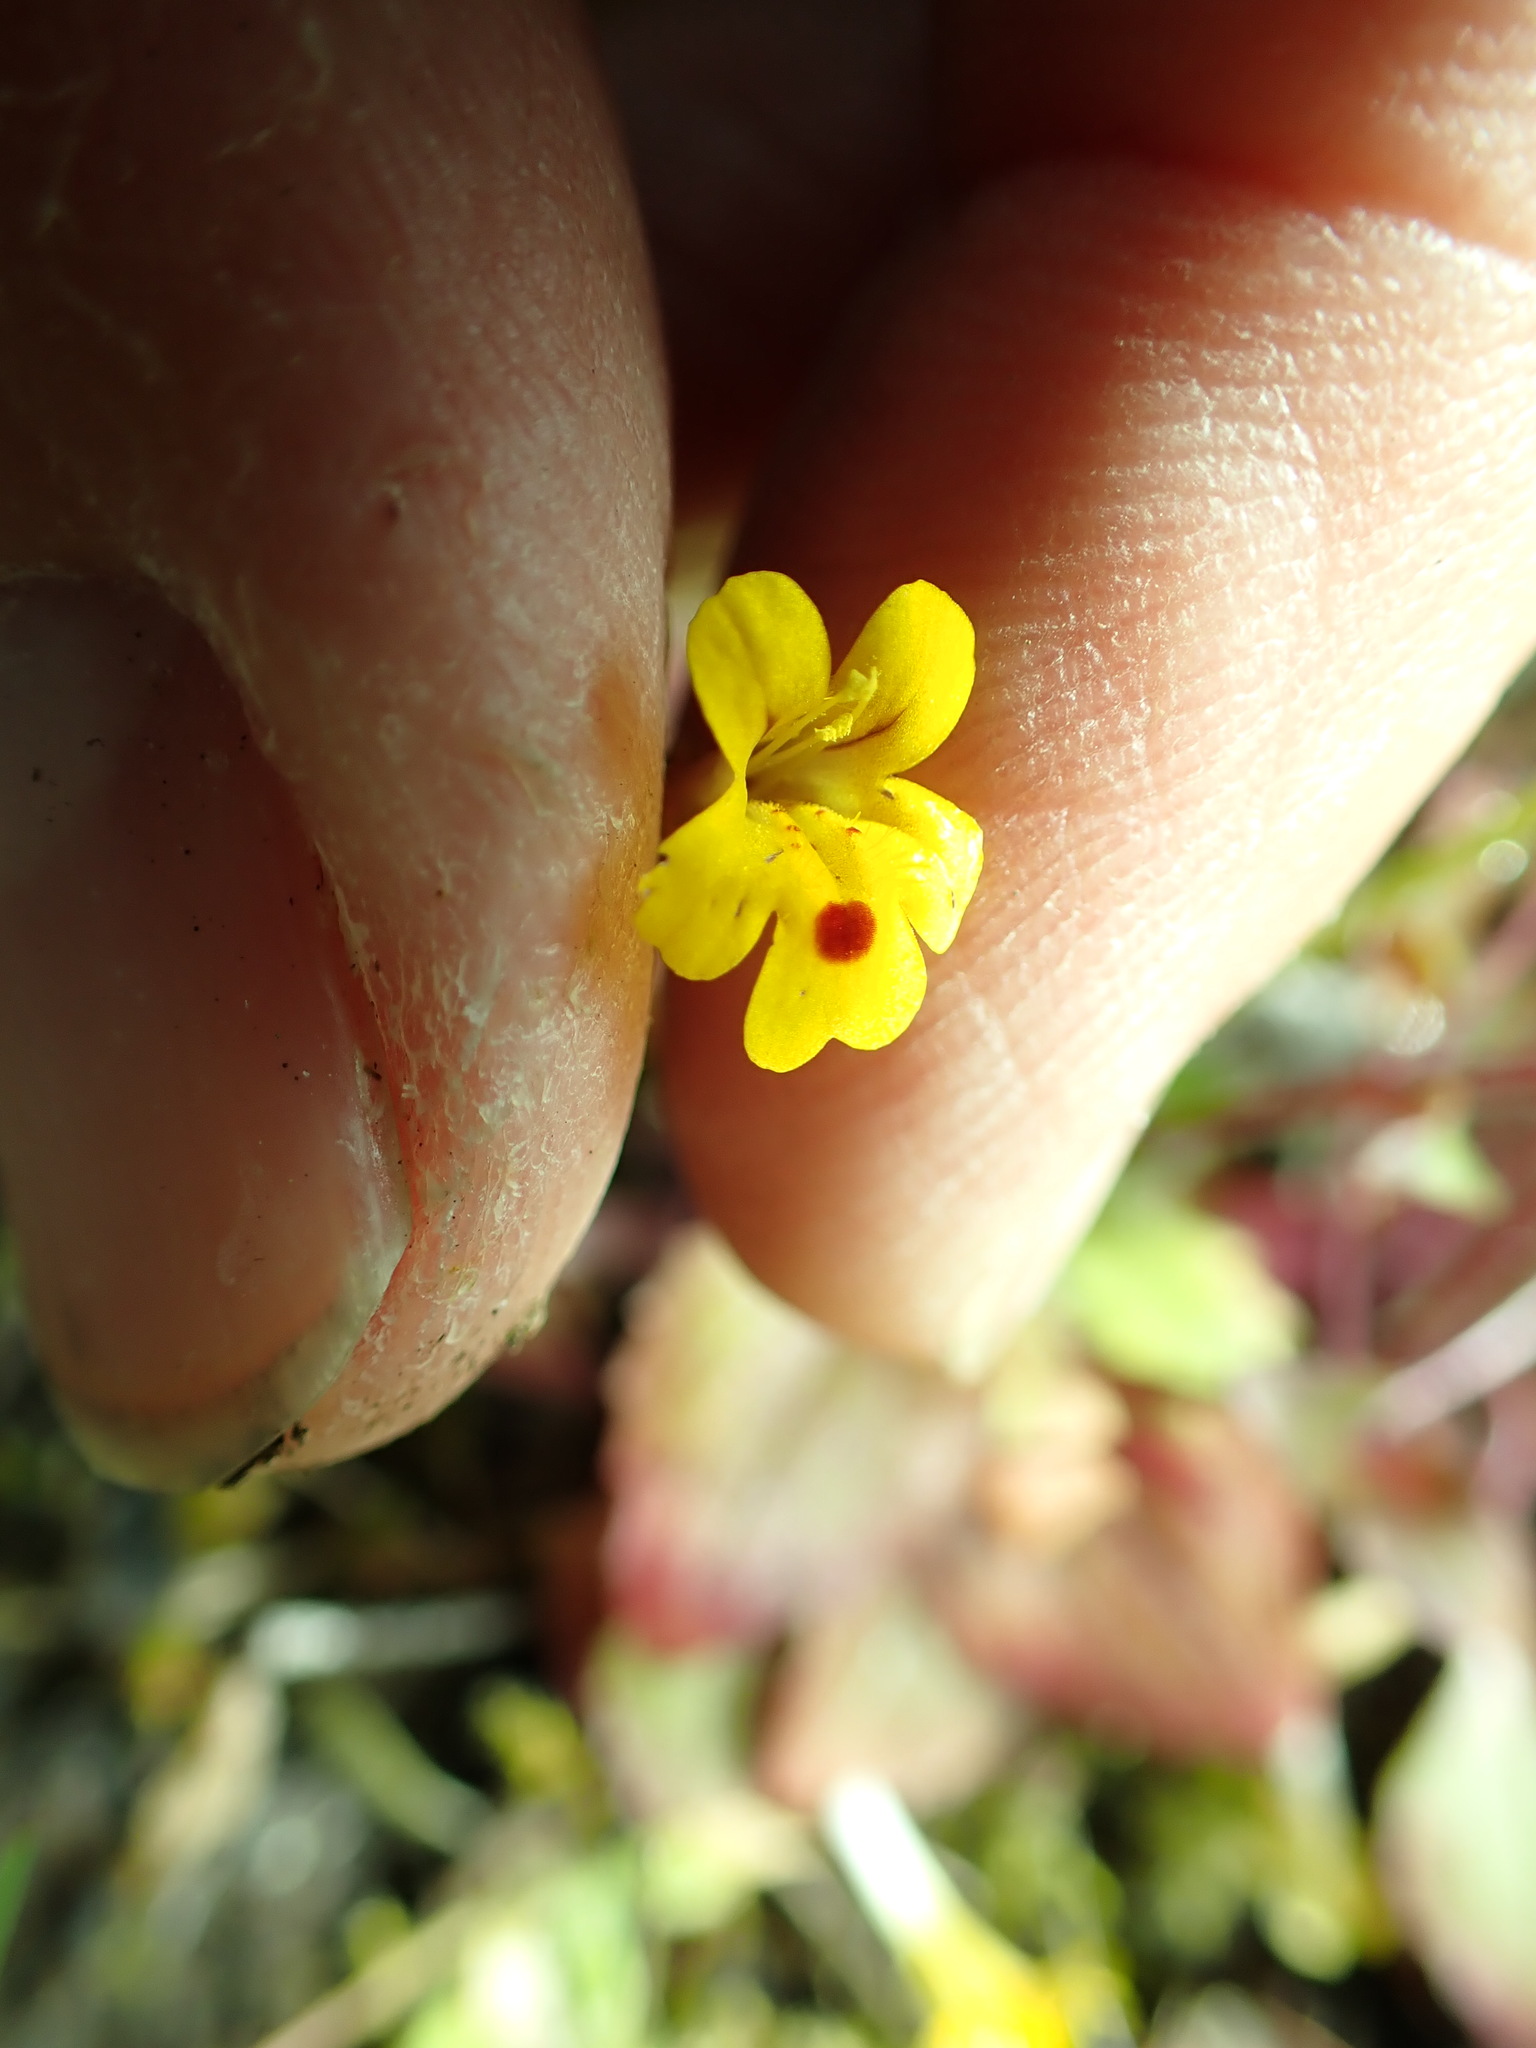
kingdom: Plantae
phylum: Tracheophyta
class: Magnoliopsida
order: Lamiales
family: Phrymaceae
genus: Erythranthe
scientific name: Erythranthe alsinoides
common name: Chickweed monkeyflower
